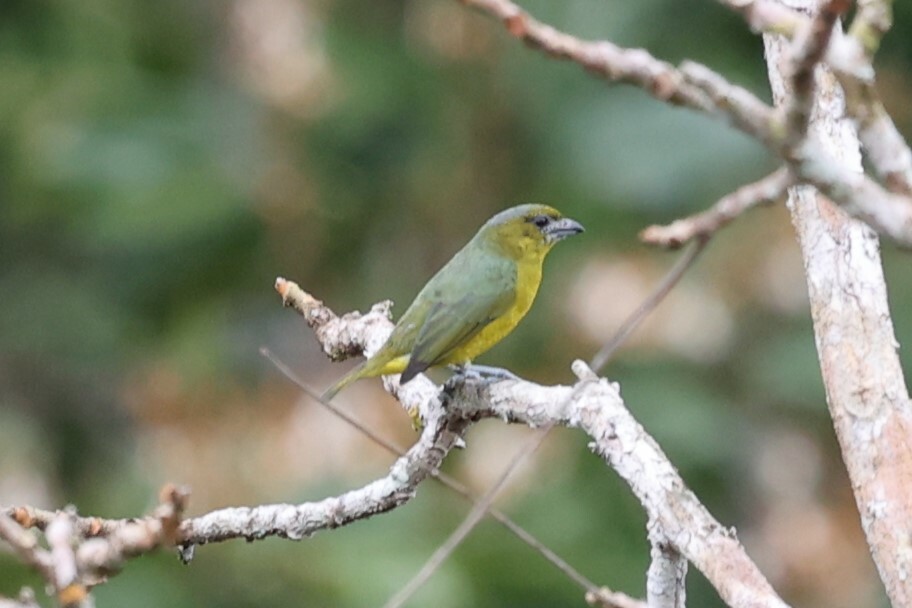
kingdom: Animalia
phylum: Chordata
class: Aves
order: Passeriformes
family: Fringillidae
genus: Euphonia
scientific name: Euphonia chrysopasta
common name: White-lored euphonia
